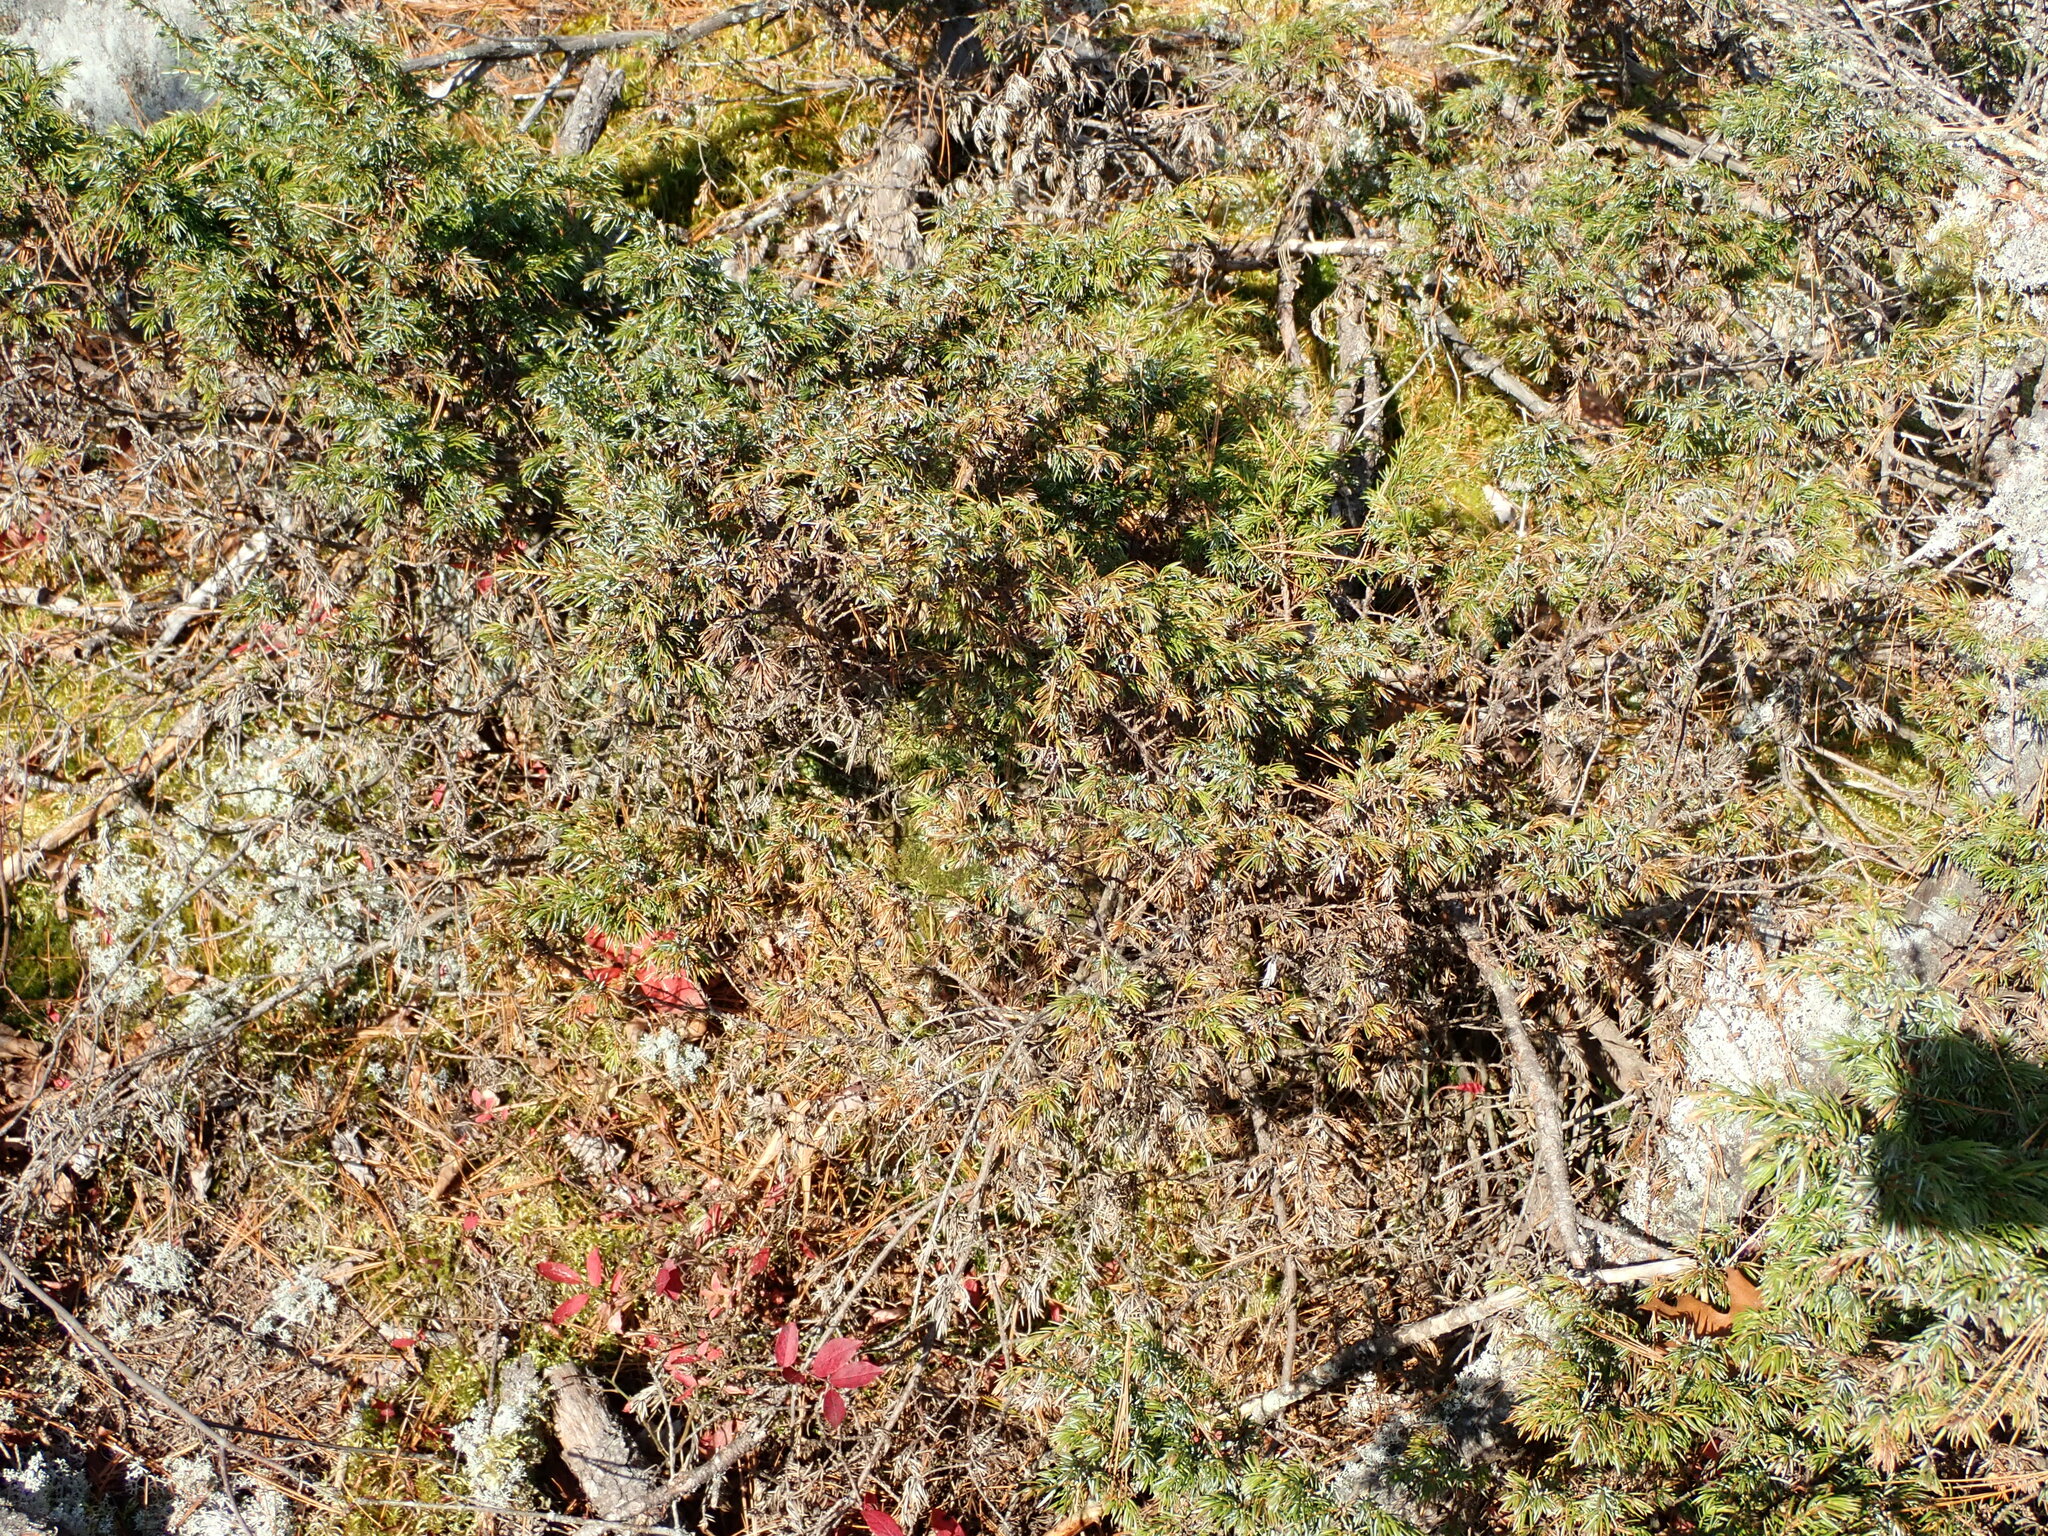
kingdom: Plantae
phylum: Tracheophyta
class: Pinopsida
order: Pinales
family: Cupressaceae
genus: Juniperus
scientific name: Juniperus communis
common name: Common juniper
